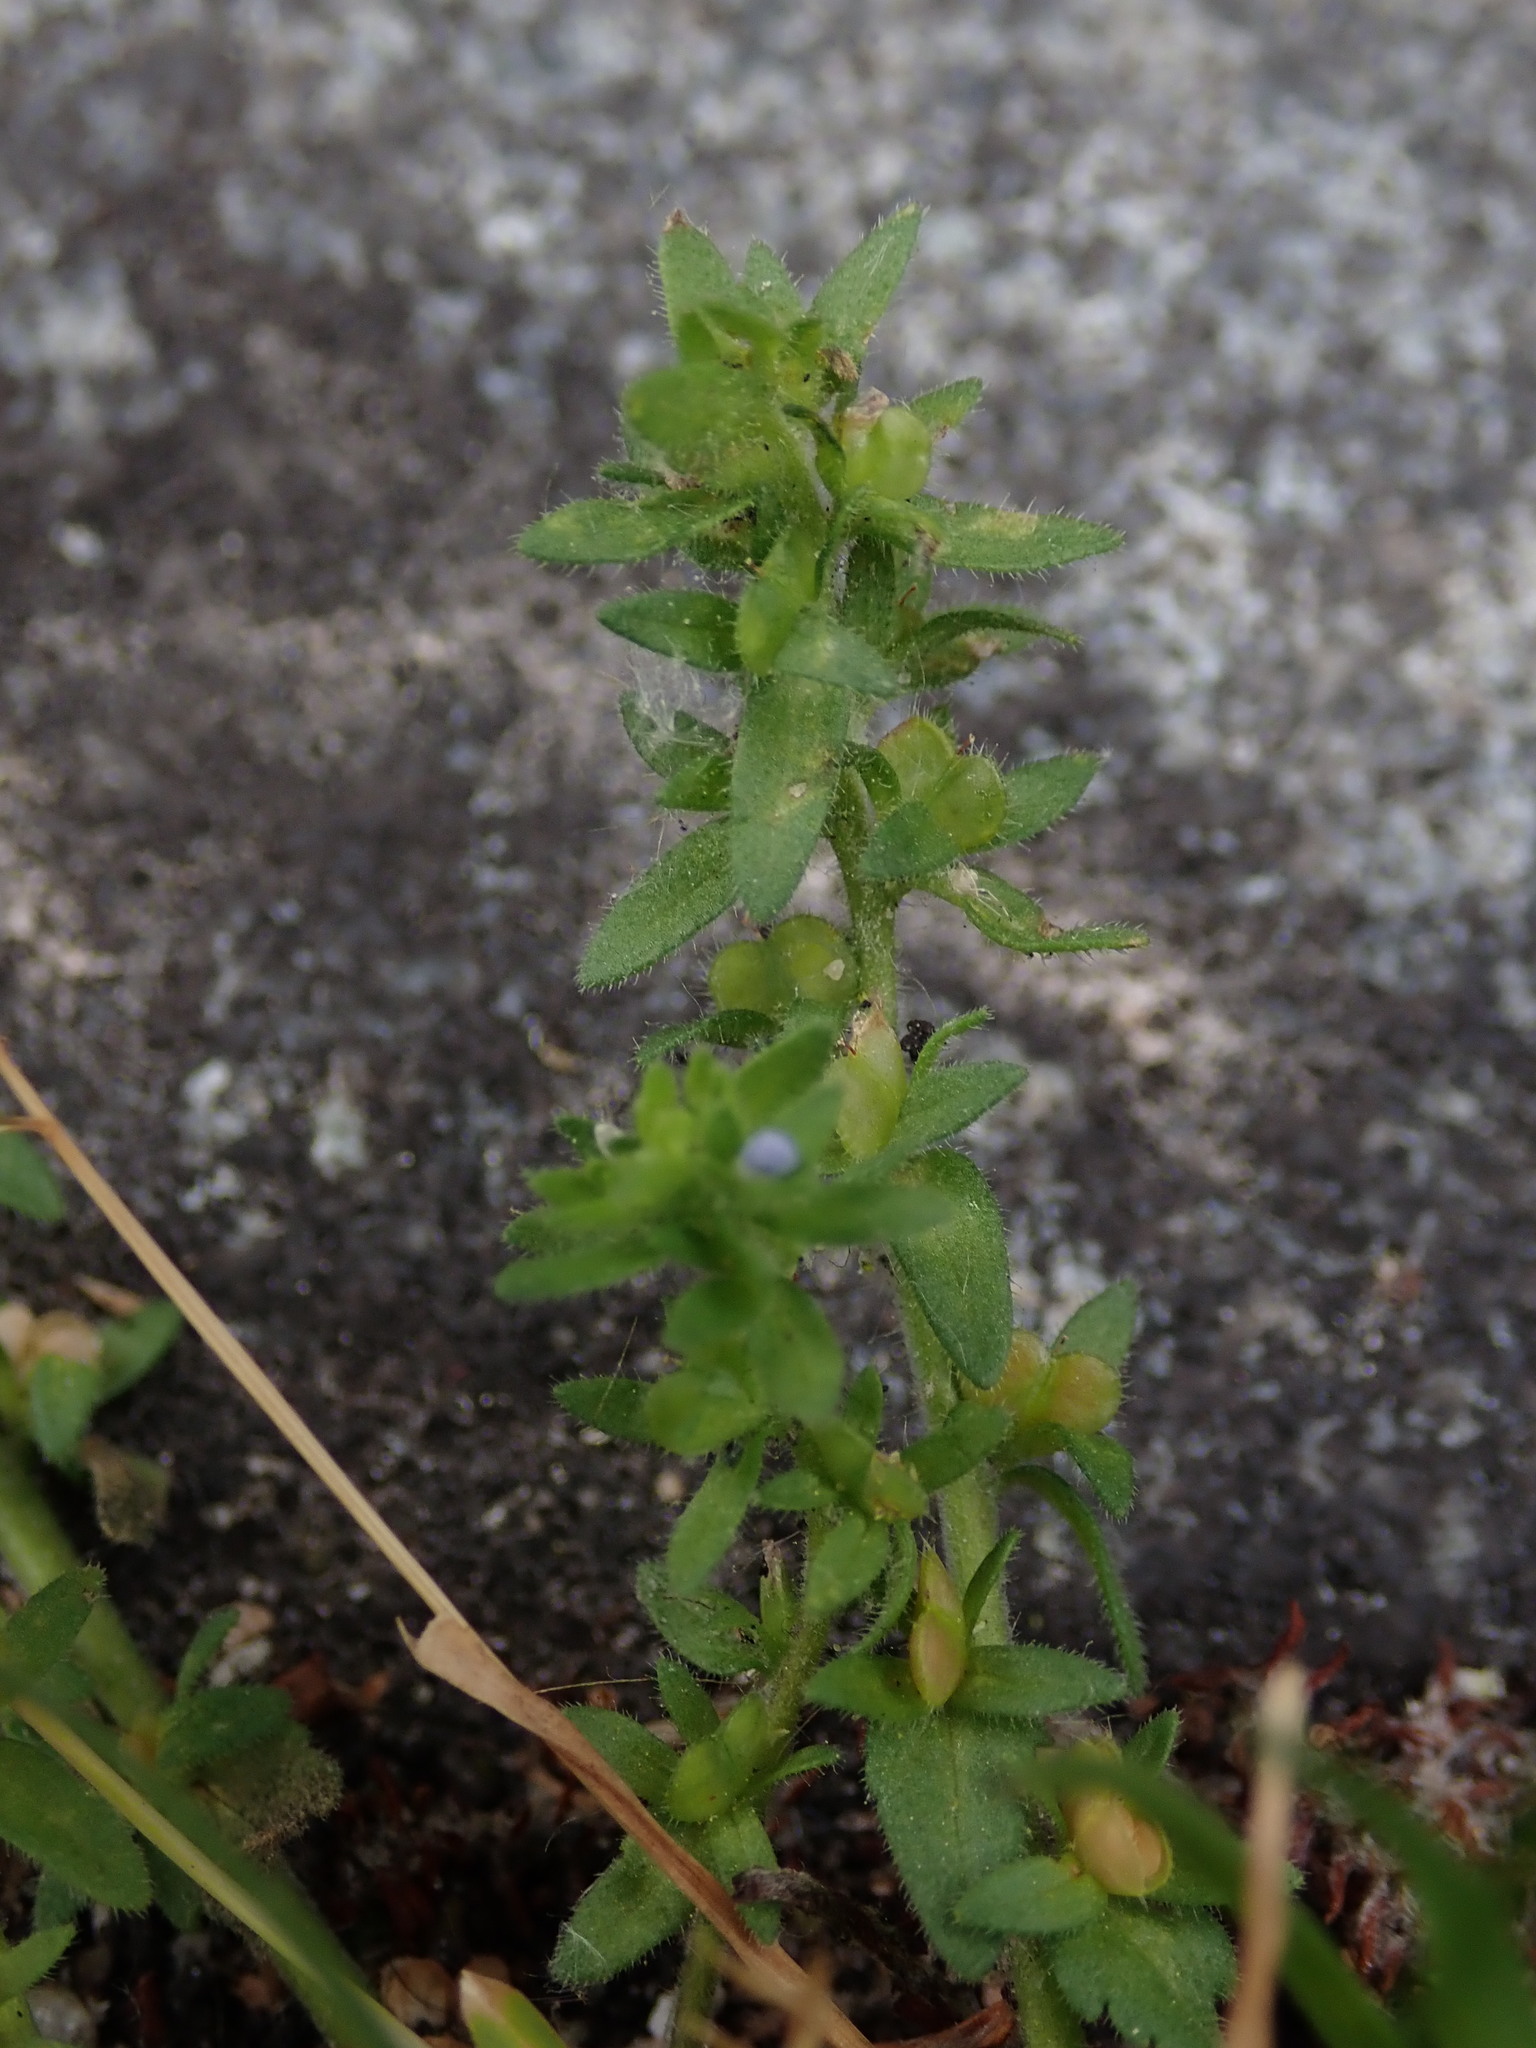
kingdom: Plantae
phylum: Tracheophyta
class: Magnoliopsida
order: Lamiales
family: Plantaginaceae
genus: Veronica
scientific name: Veronica arvensis
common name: Corn speedwell
